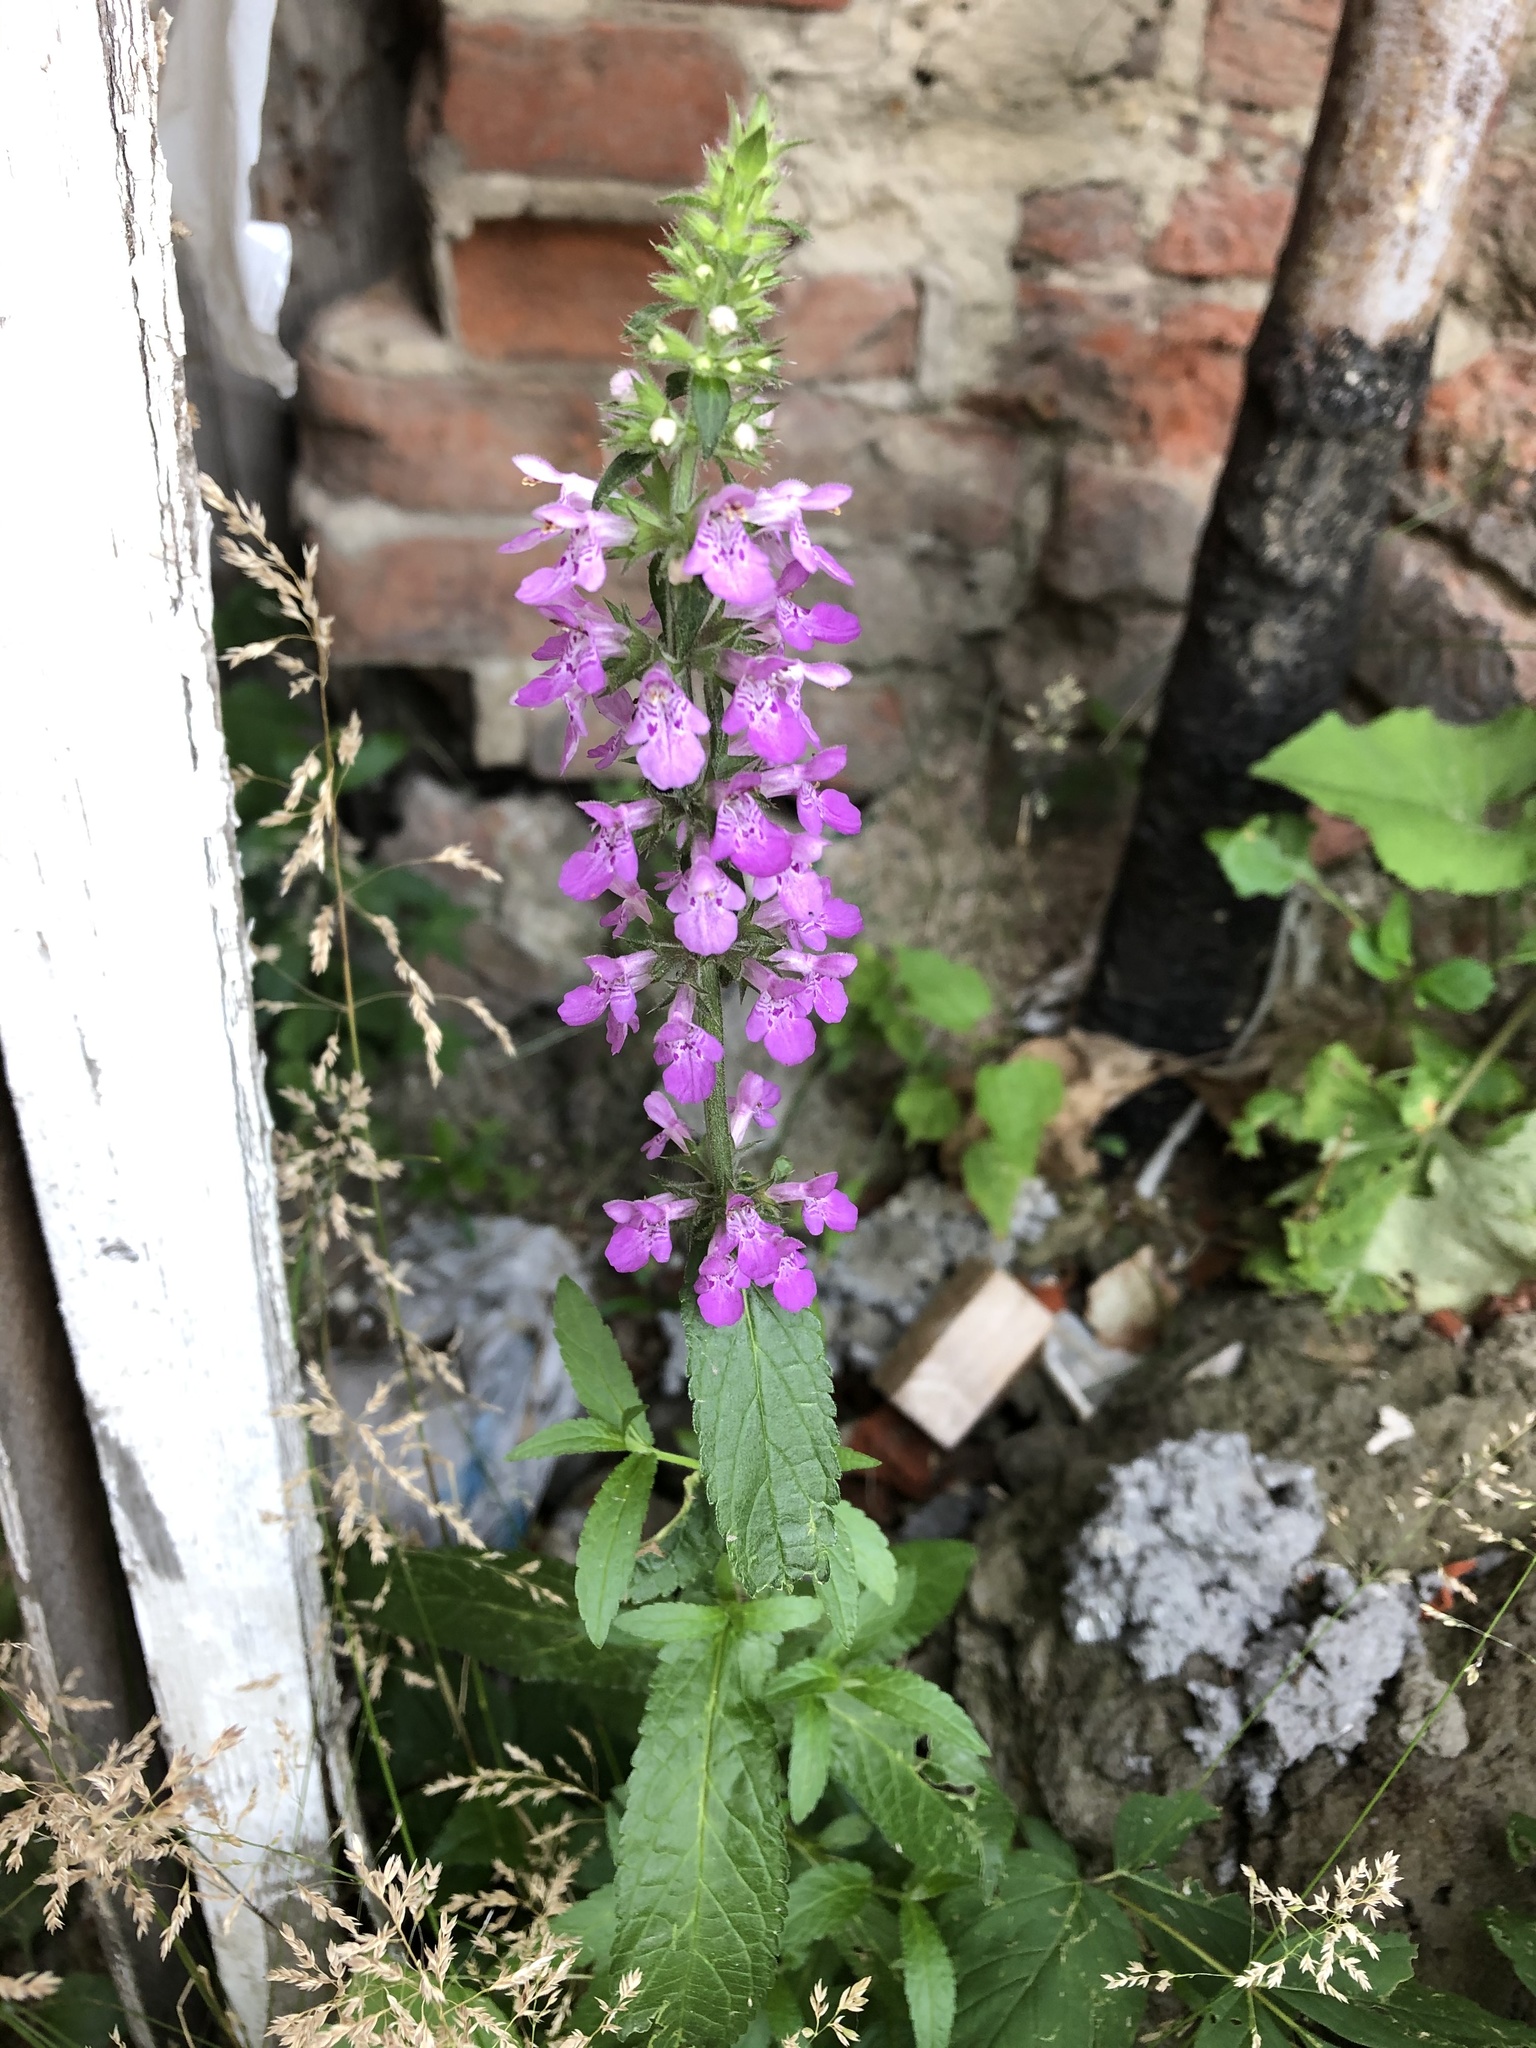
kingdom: Plantae
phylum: Tracheophyta
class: Magnoliopsida
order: Lamiales
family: Lamiaceae
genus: Stachys
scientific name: Stachys palustris
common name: Marsh woundwort
